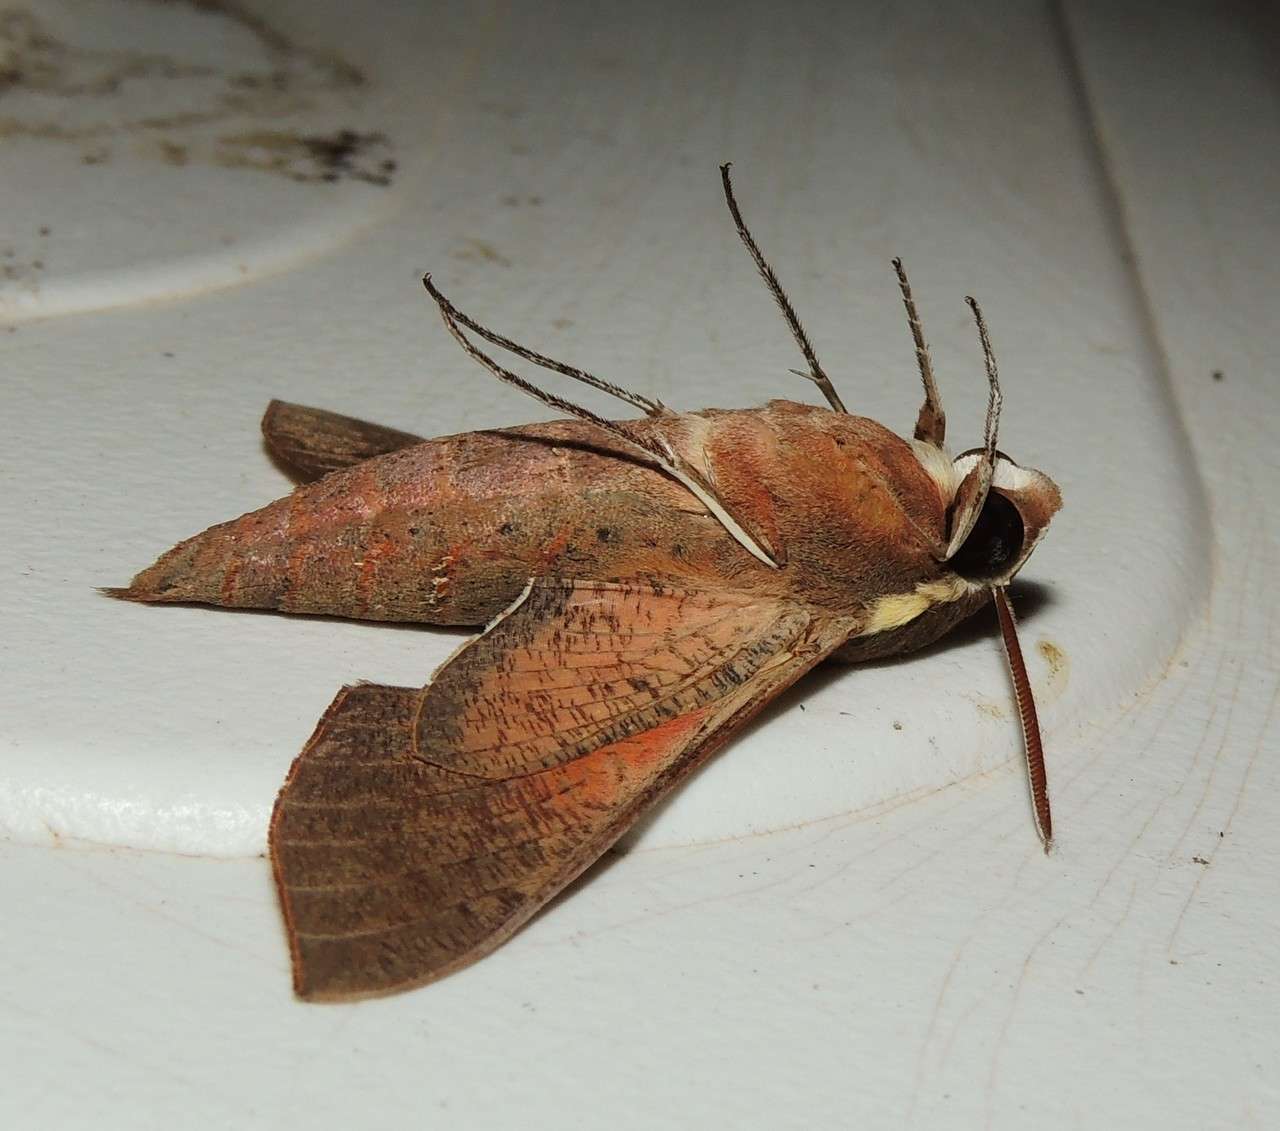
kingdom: Animalia
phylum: Arthropoda
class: Insecta
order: Lepidoptera
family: Sphingidae
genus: Hippotion
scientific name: Hippotion scrofa
